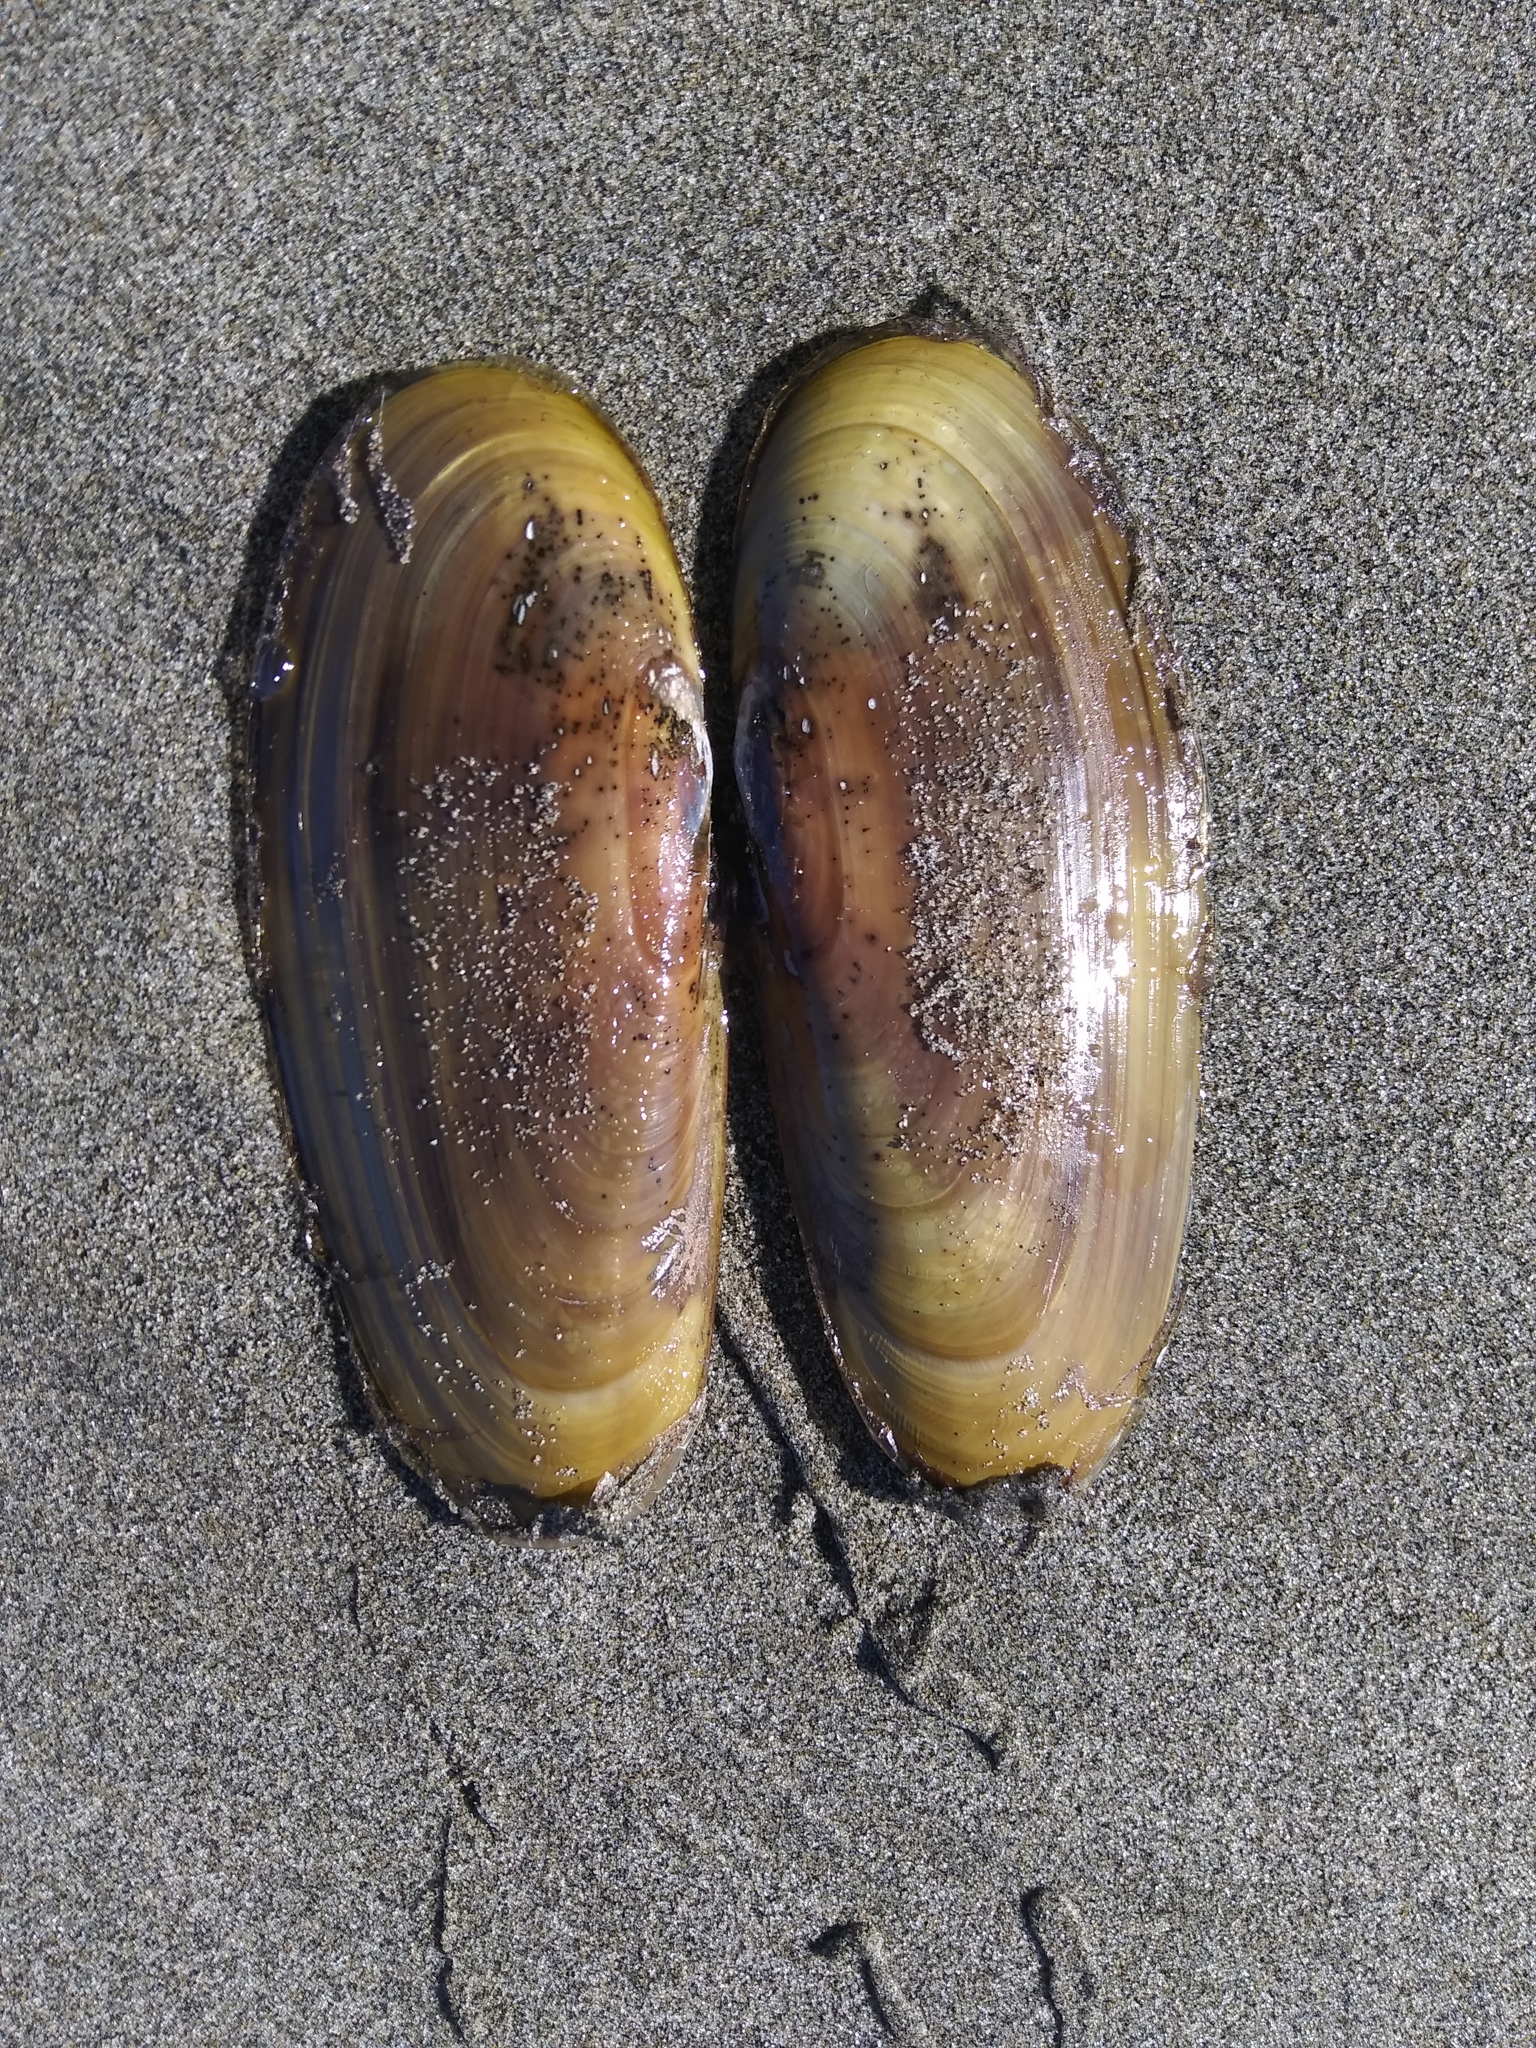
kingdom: Animalia
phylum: Mollusca
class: Bivalvia
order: Adapedonta
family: Pharidae
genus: Siliqua
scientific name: Siliqua patula
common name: Pacific razor clam
